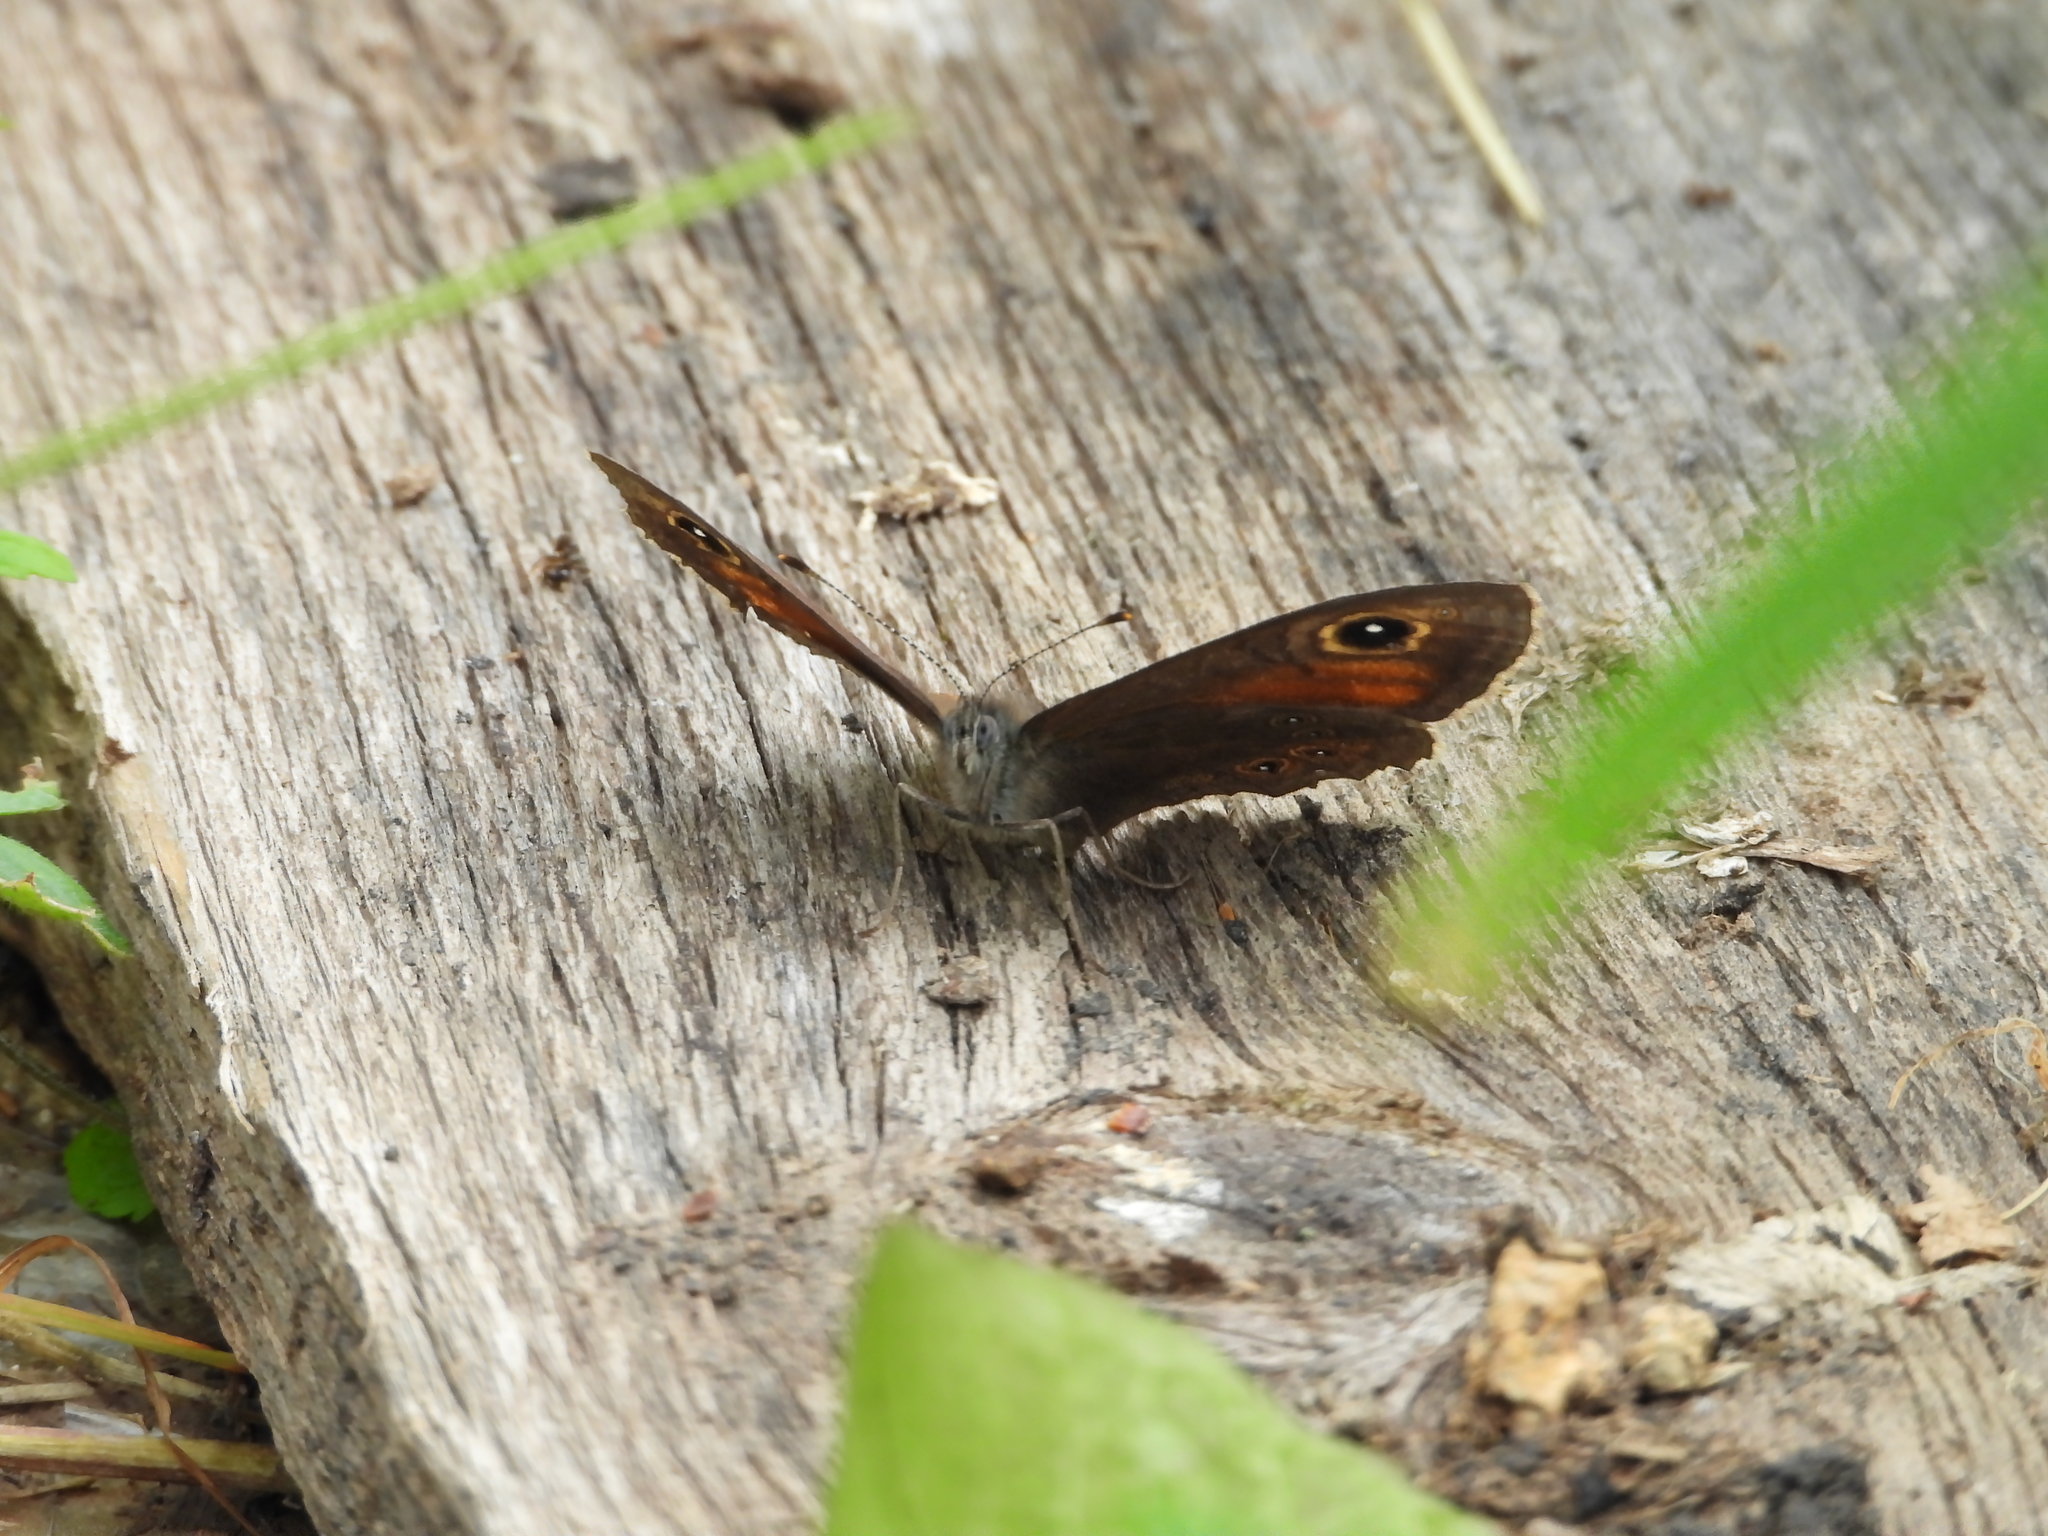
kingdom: Animalia
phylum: Arthropoda
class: Insecta
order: Lepidoptera
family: Nymphalidae
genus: Pararge
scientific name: Pararge Lasiommata maera
